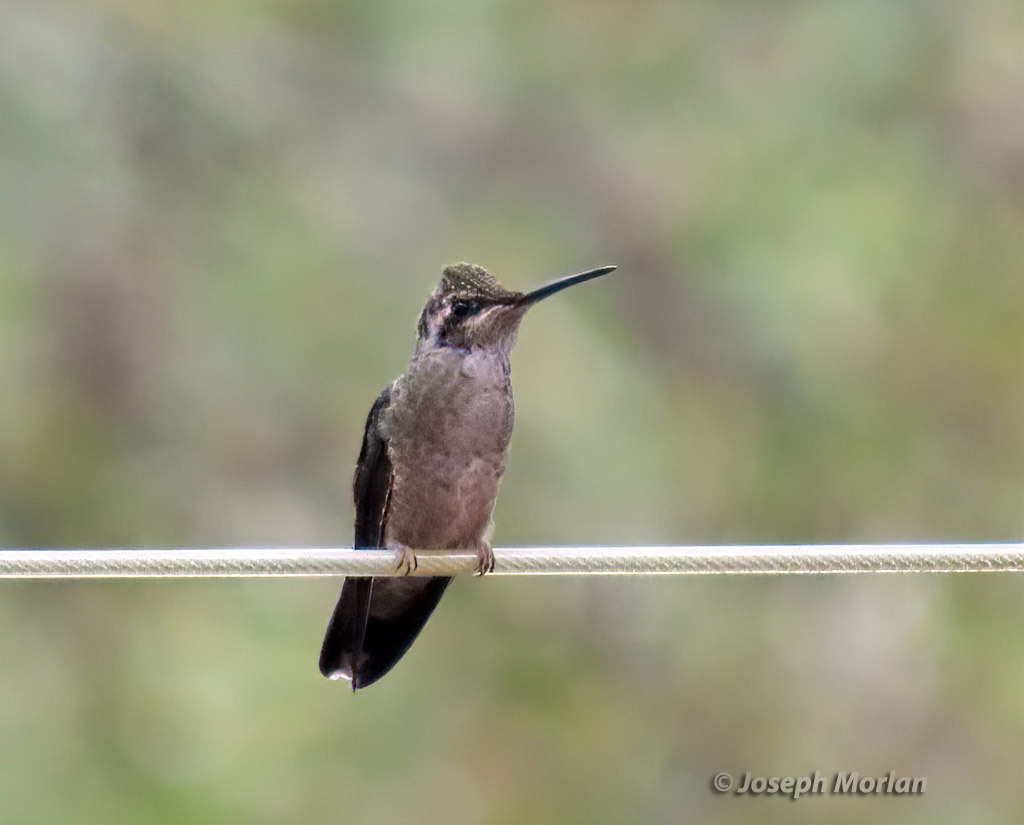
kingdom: Animalia
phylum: Chordata
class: Aves
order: Apodiformes
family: Trochilidae
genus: Eugenes
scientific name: Eugenes fulgens
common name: Magnificent hummingbird
